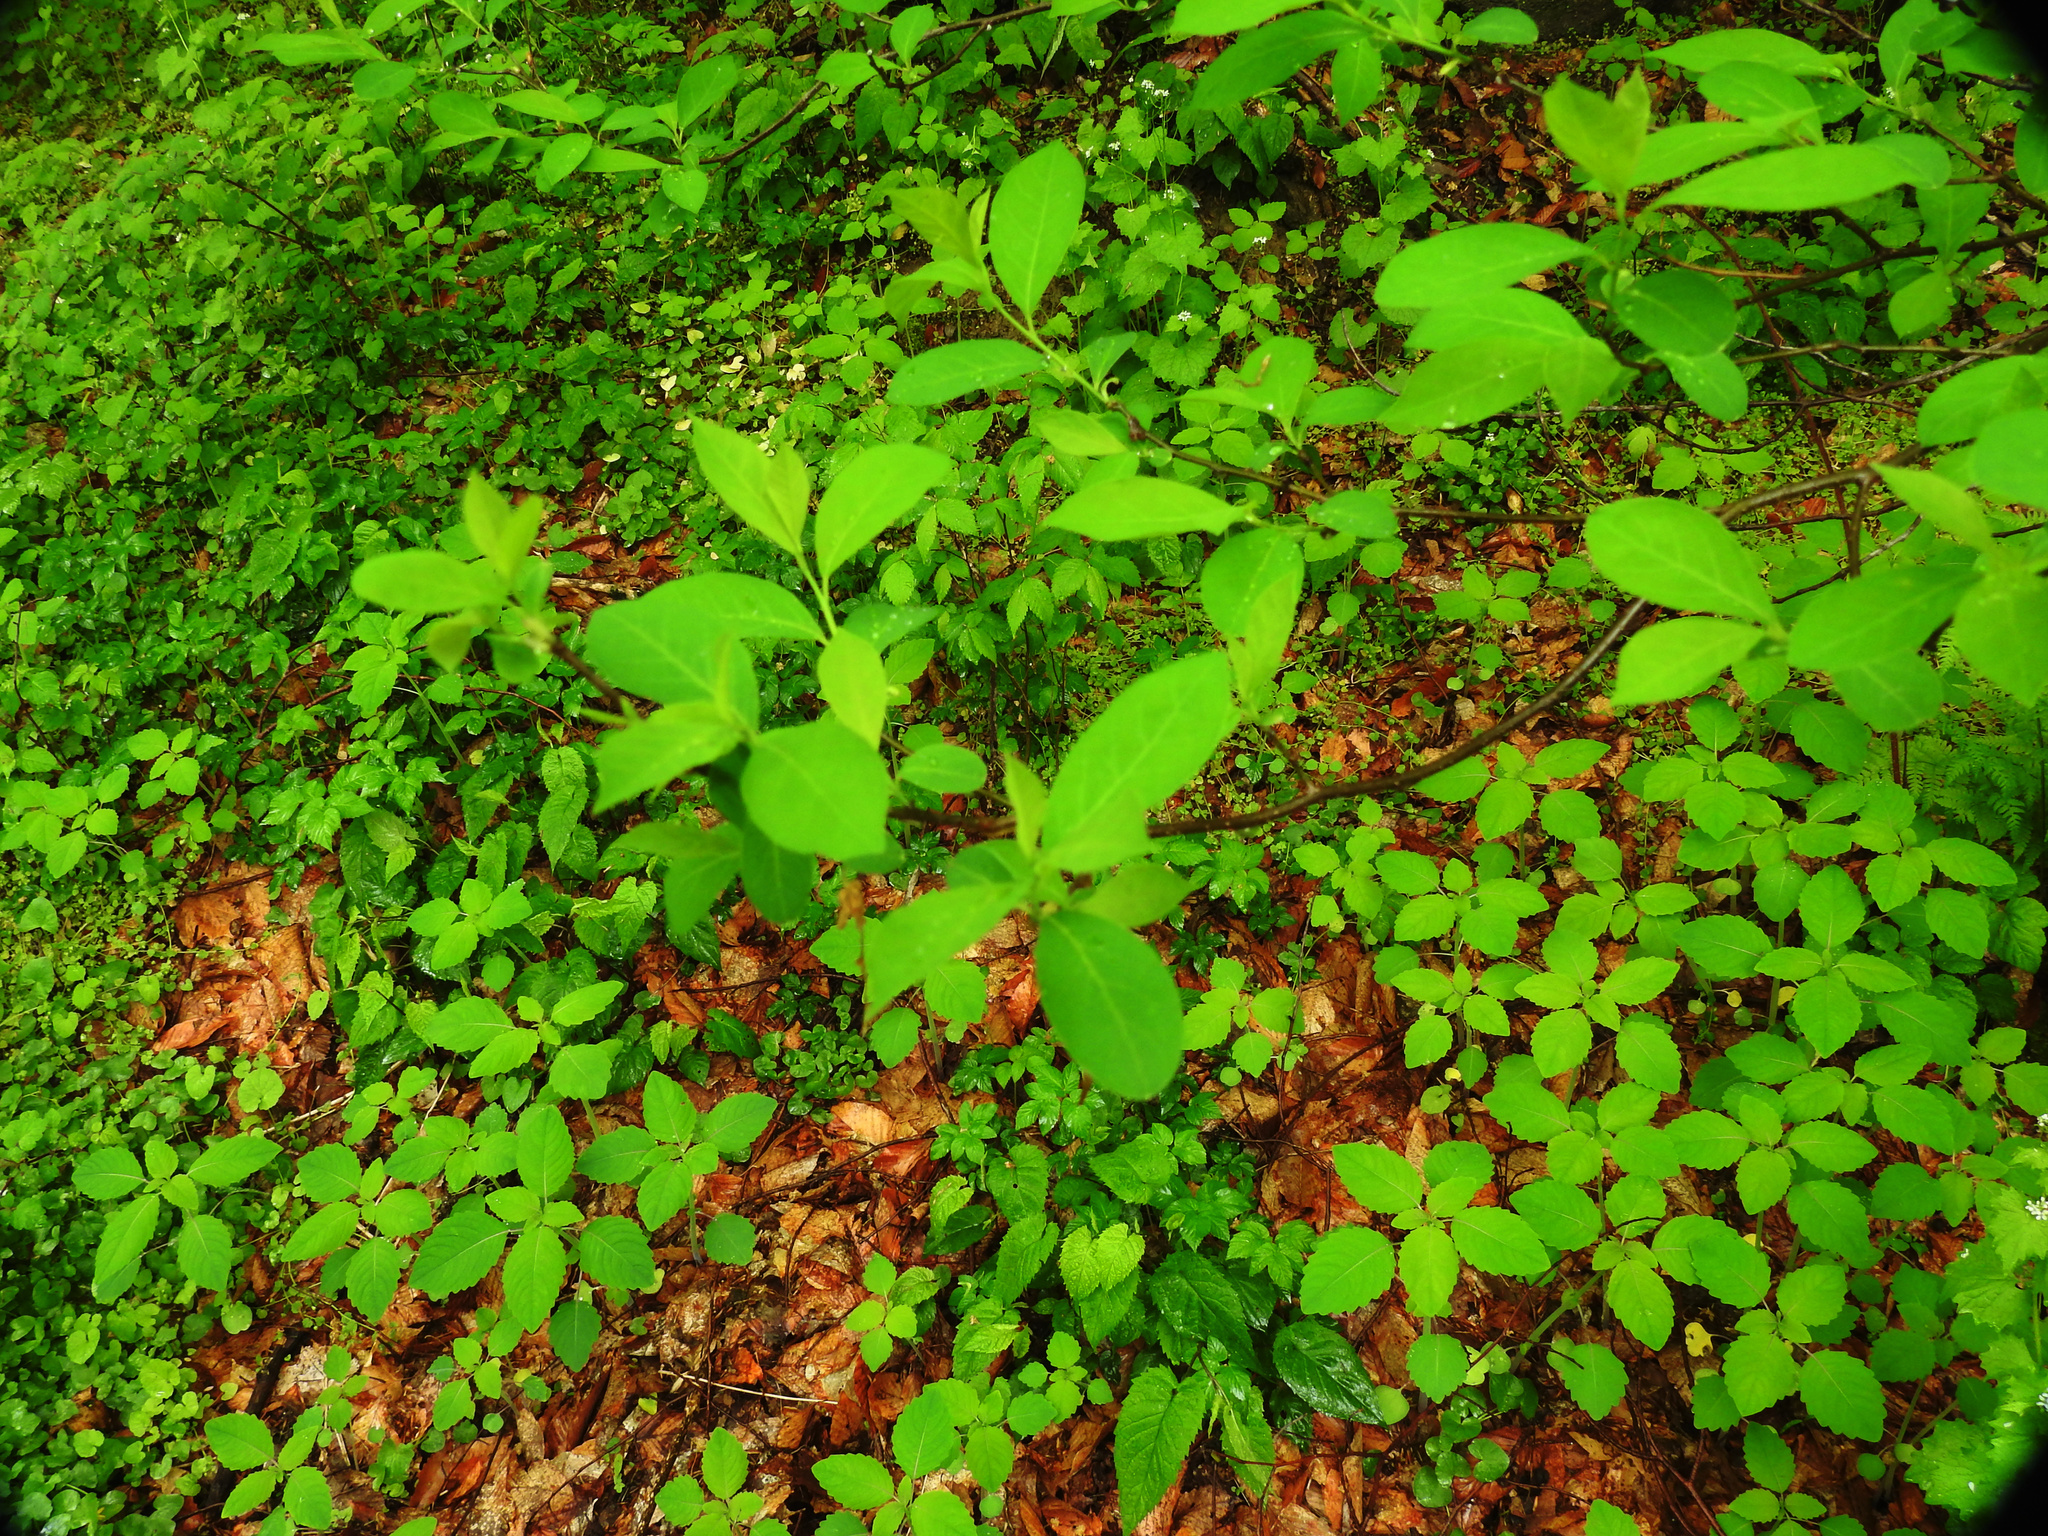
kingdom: Plantae
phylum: Tracheophyta
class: Magnoliopsida
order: Laurales
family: Lauraceae
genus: Lindera
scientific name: Lindera benzoin
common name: Spicebush
